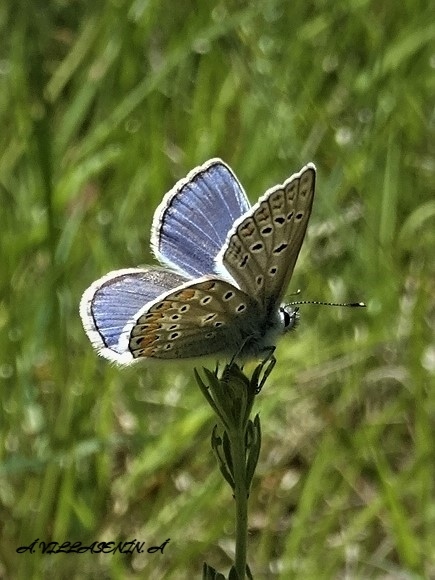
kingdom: Animalia
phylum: Arthropoda
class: Insecta
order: Lepidoptera
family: Lycaenidae
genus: Polyommatus
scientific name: Polyommatus icarus
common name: Common blue
